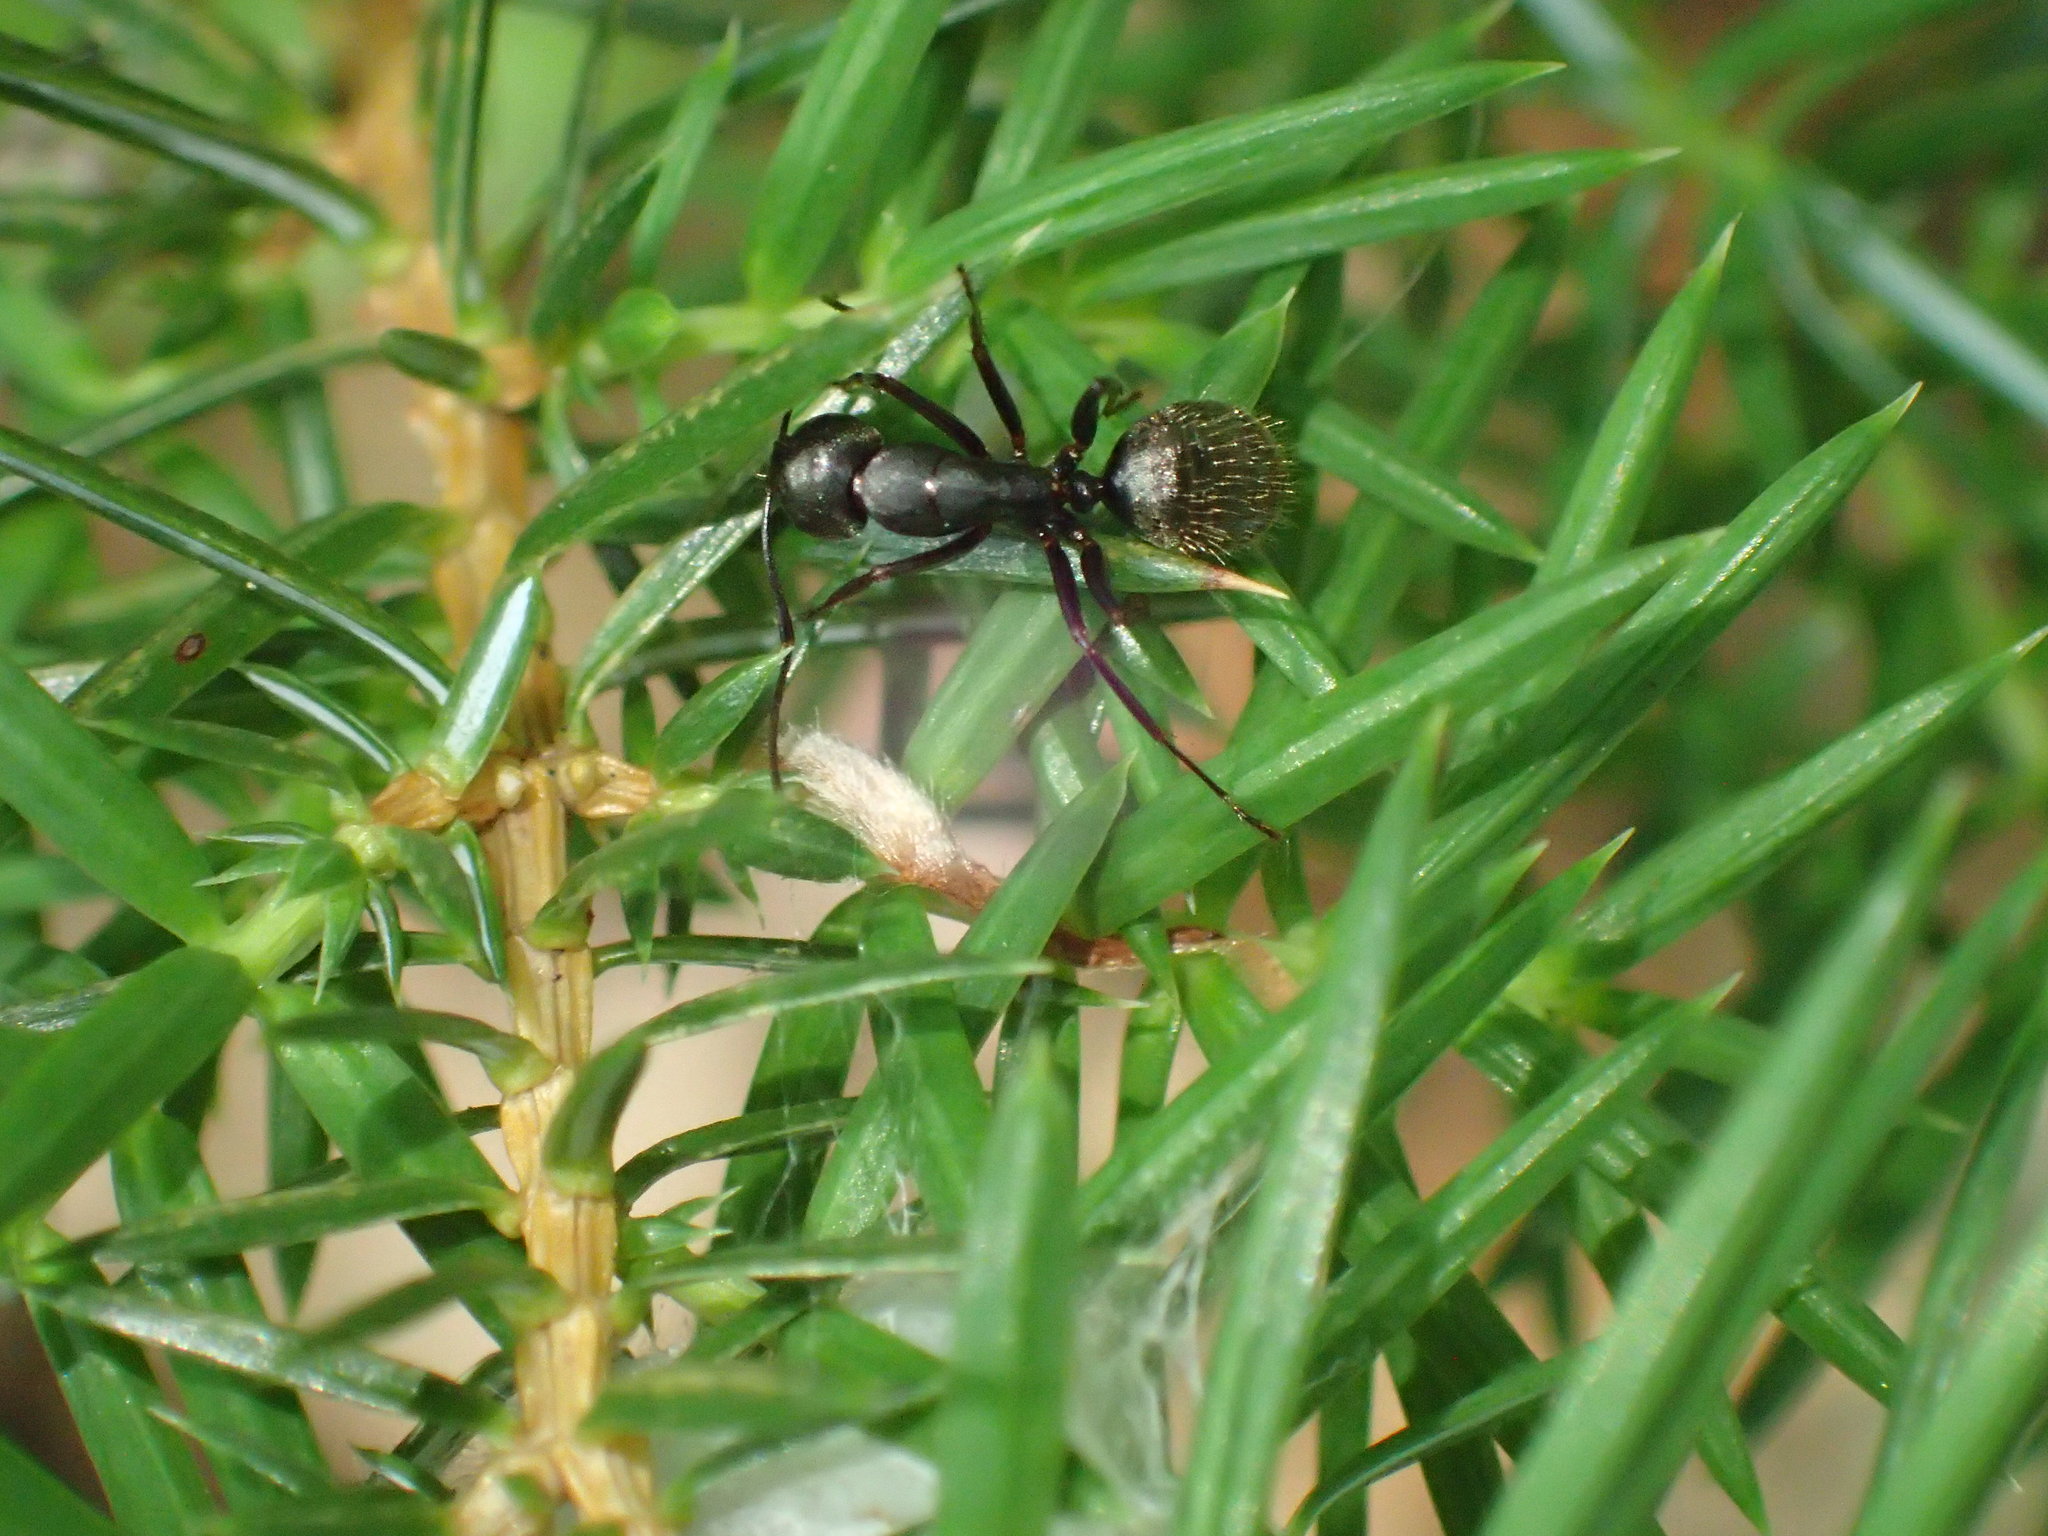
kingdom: Animalia
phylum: Arthropoda
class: Insecta
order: Hymenoptera
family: Formicidae
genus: Camponotus
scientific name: Camponotus pennsylvanicus
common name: Black carpenter ant
